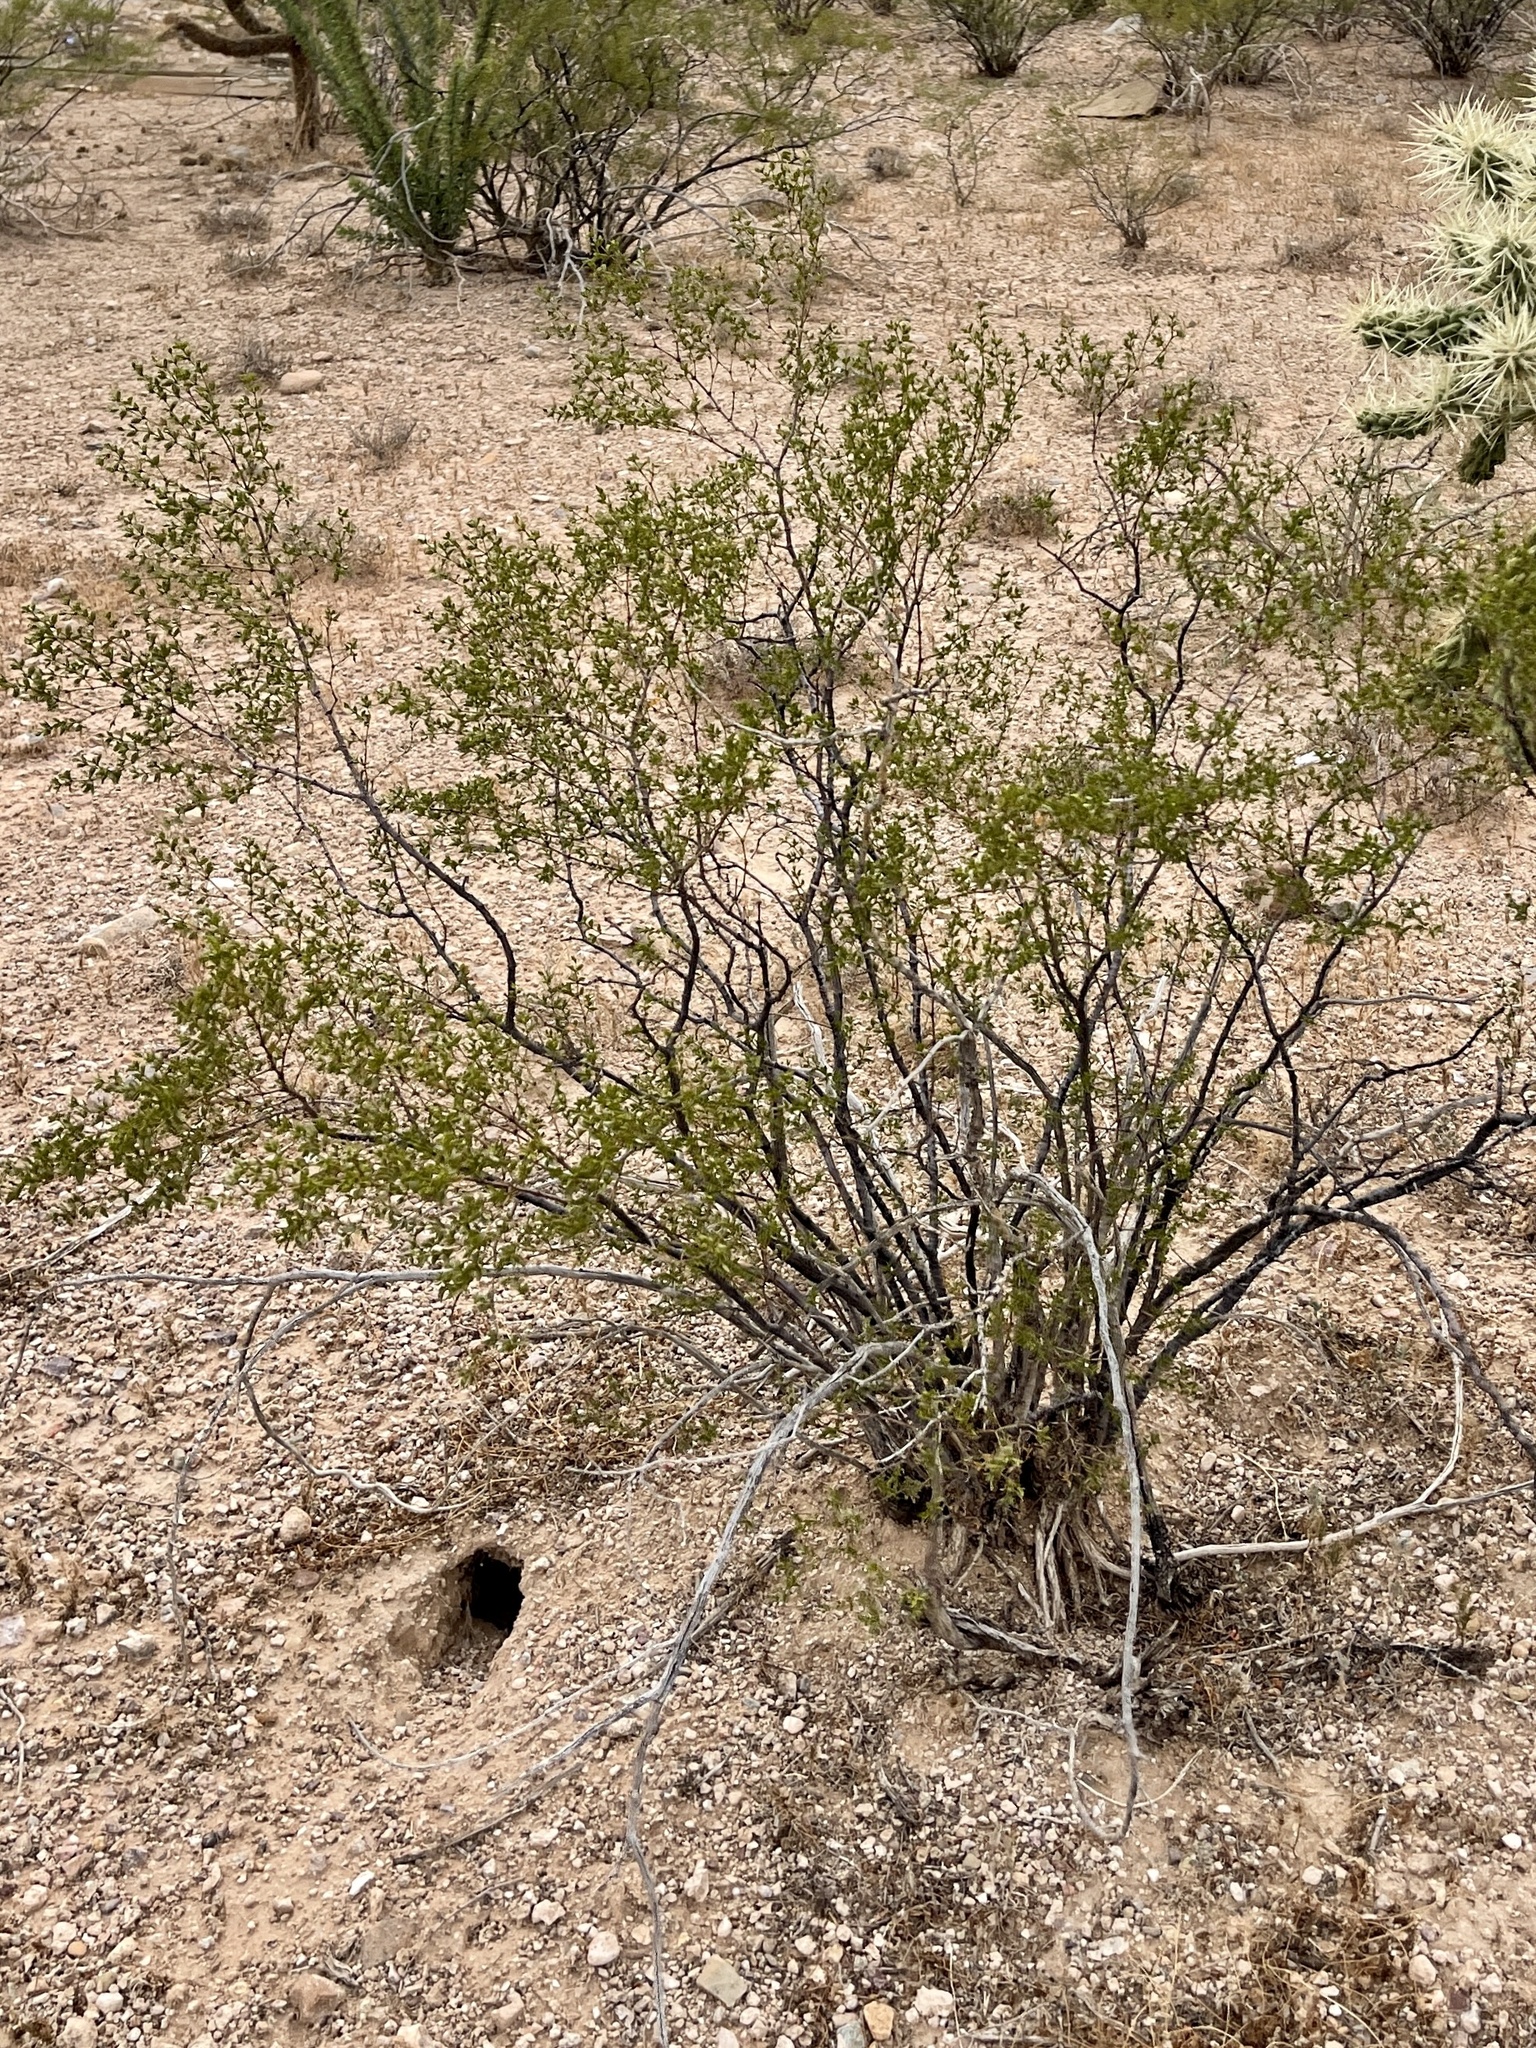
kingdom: Plantae
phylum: Tracheophyta
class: Magnoliopsida
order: Zygophyllales
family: Zygophyllaceae
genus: Larrea
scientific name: Larrea tridentata
